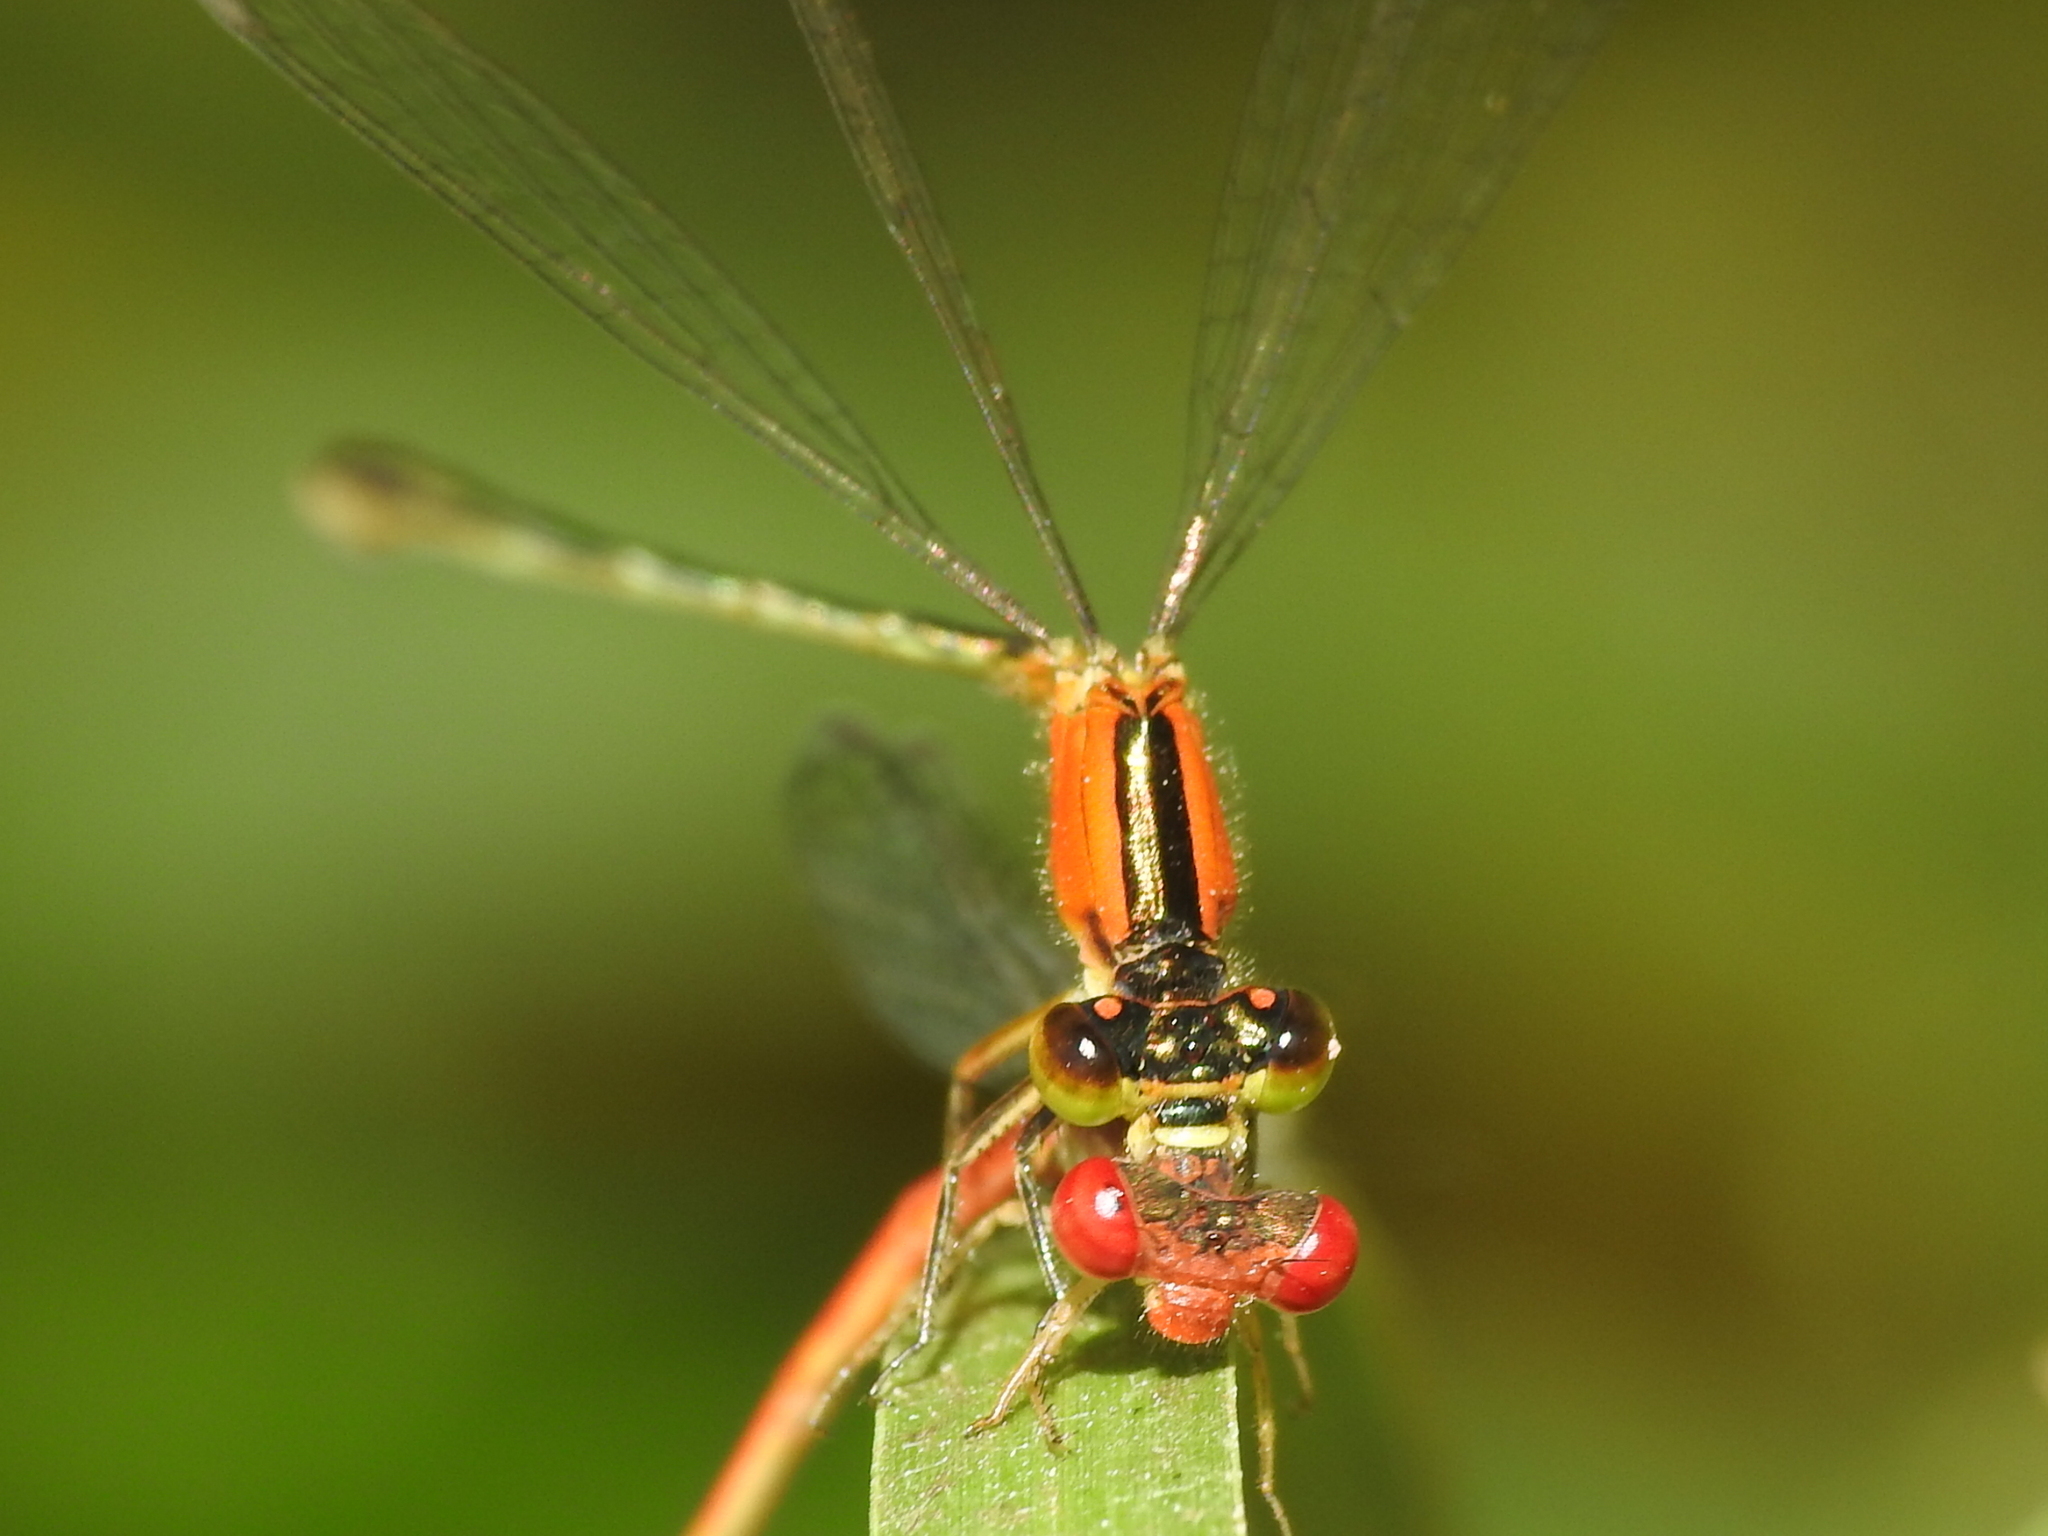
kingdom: Animalia
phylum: Arthropoda
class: Insecta
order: Odonata
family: Coenagrionidae
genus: Ischnura
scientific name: Ischnura ramburii
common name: Rambur's forktail
